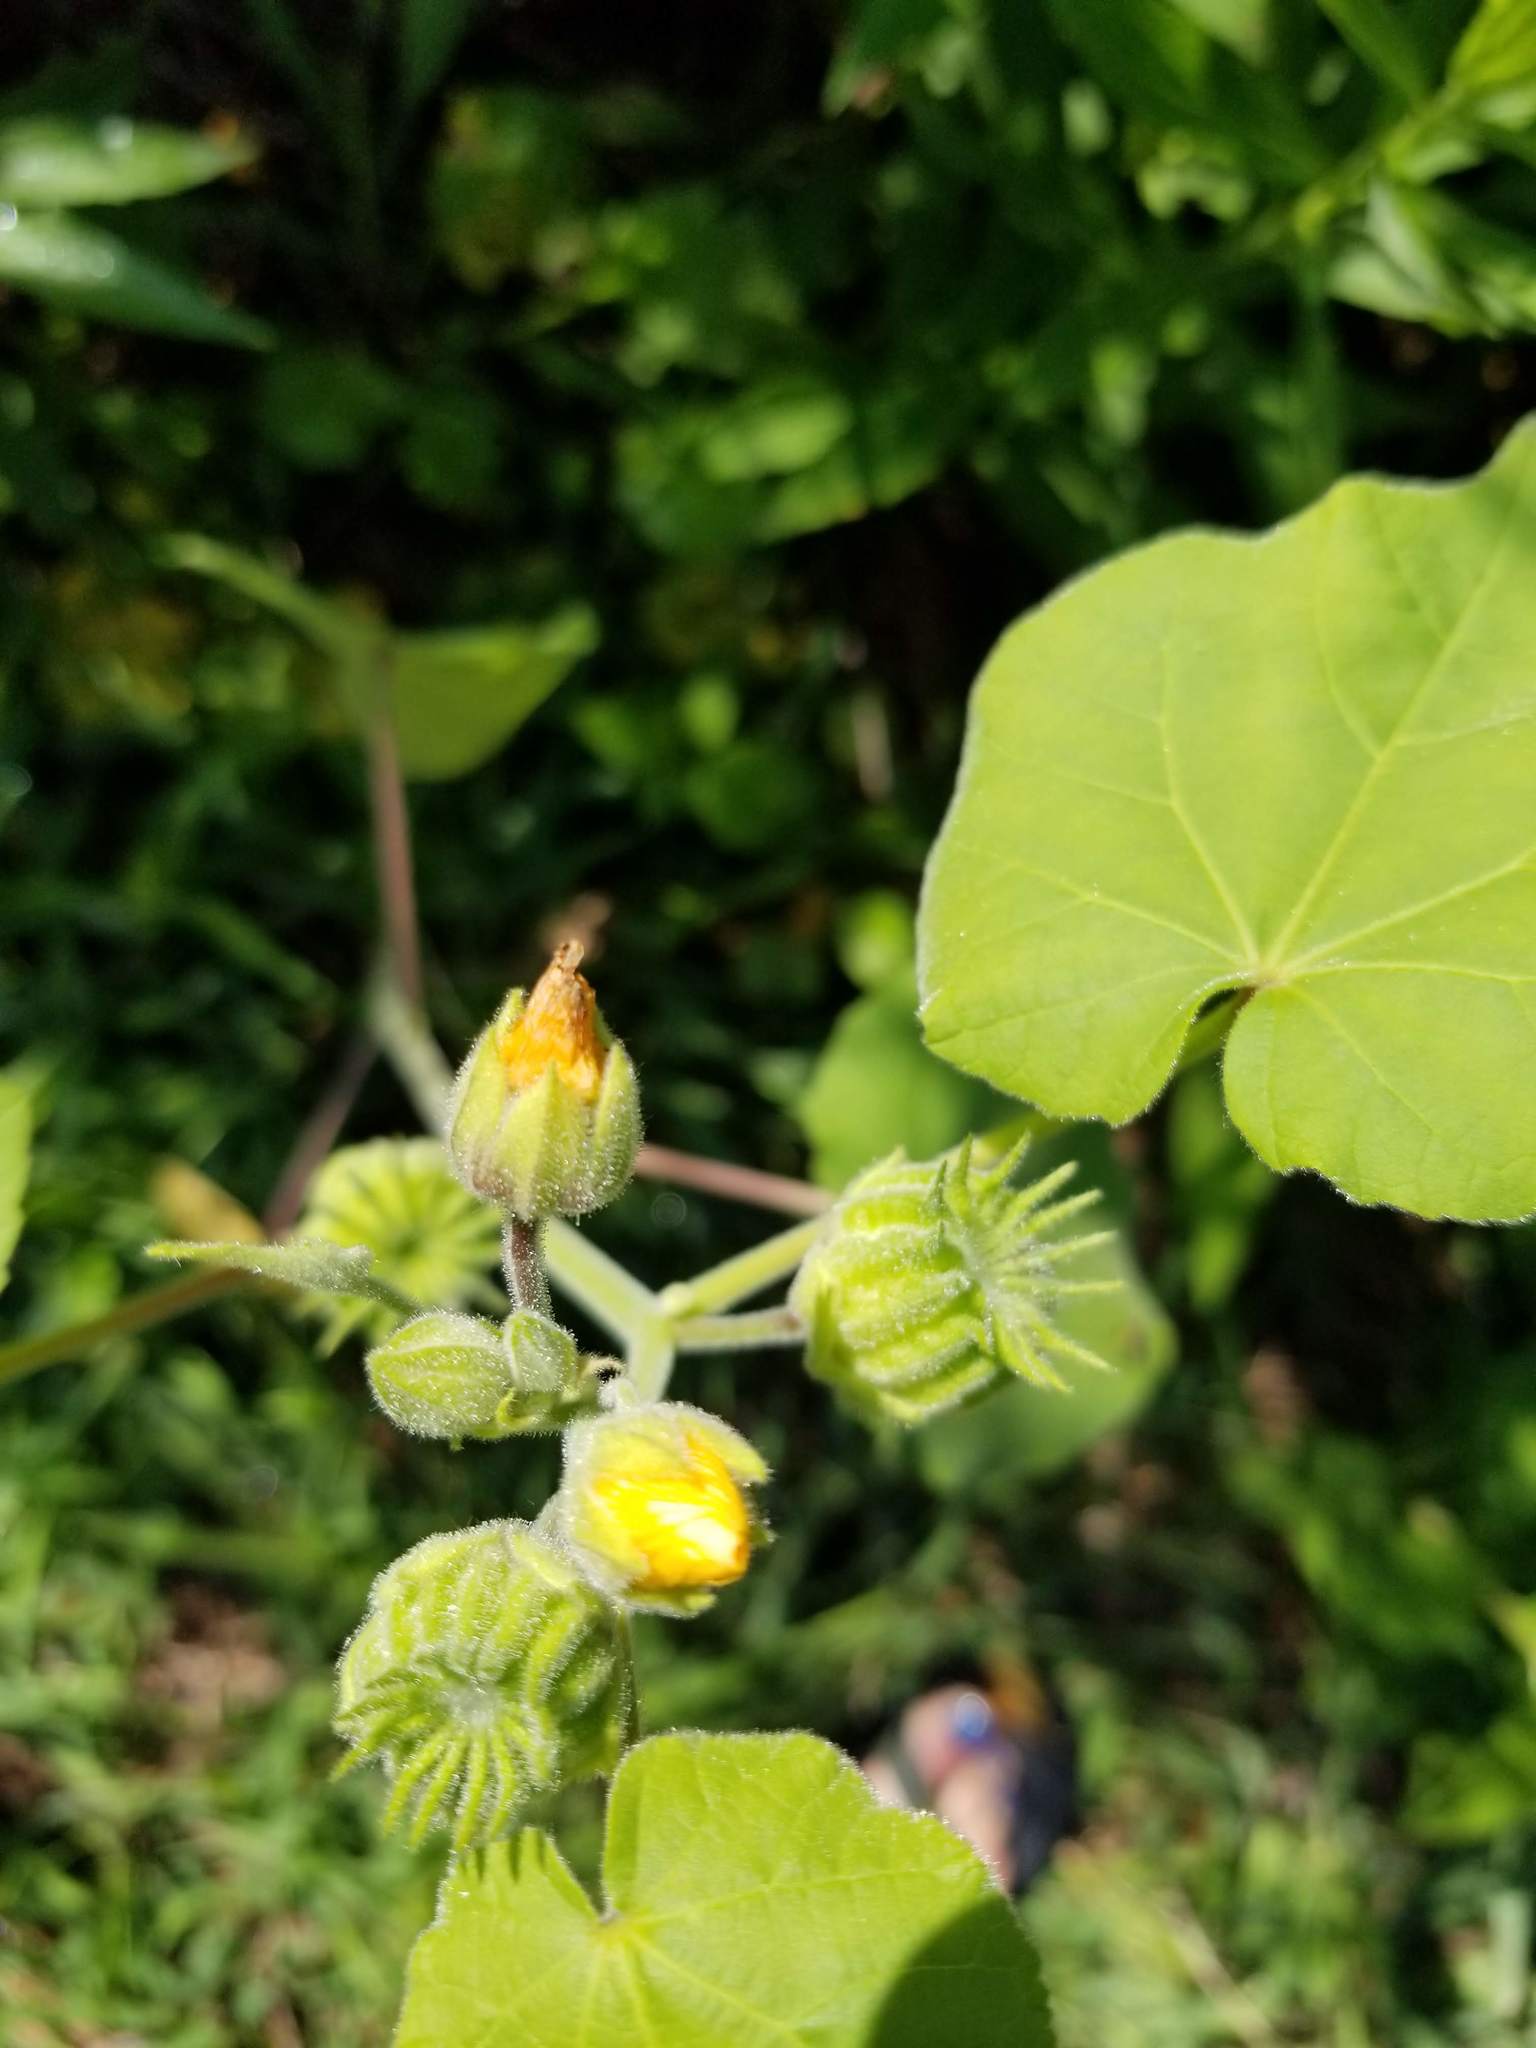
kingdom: Plantae
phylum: Tracheophyta
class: Magnoliopsida
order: Malvales
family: Malvaceae
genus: Abutilon
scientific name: Abutilon theophrasti
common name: Velvetleaf
